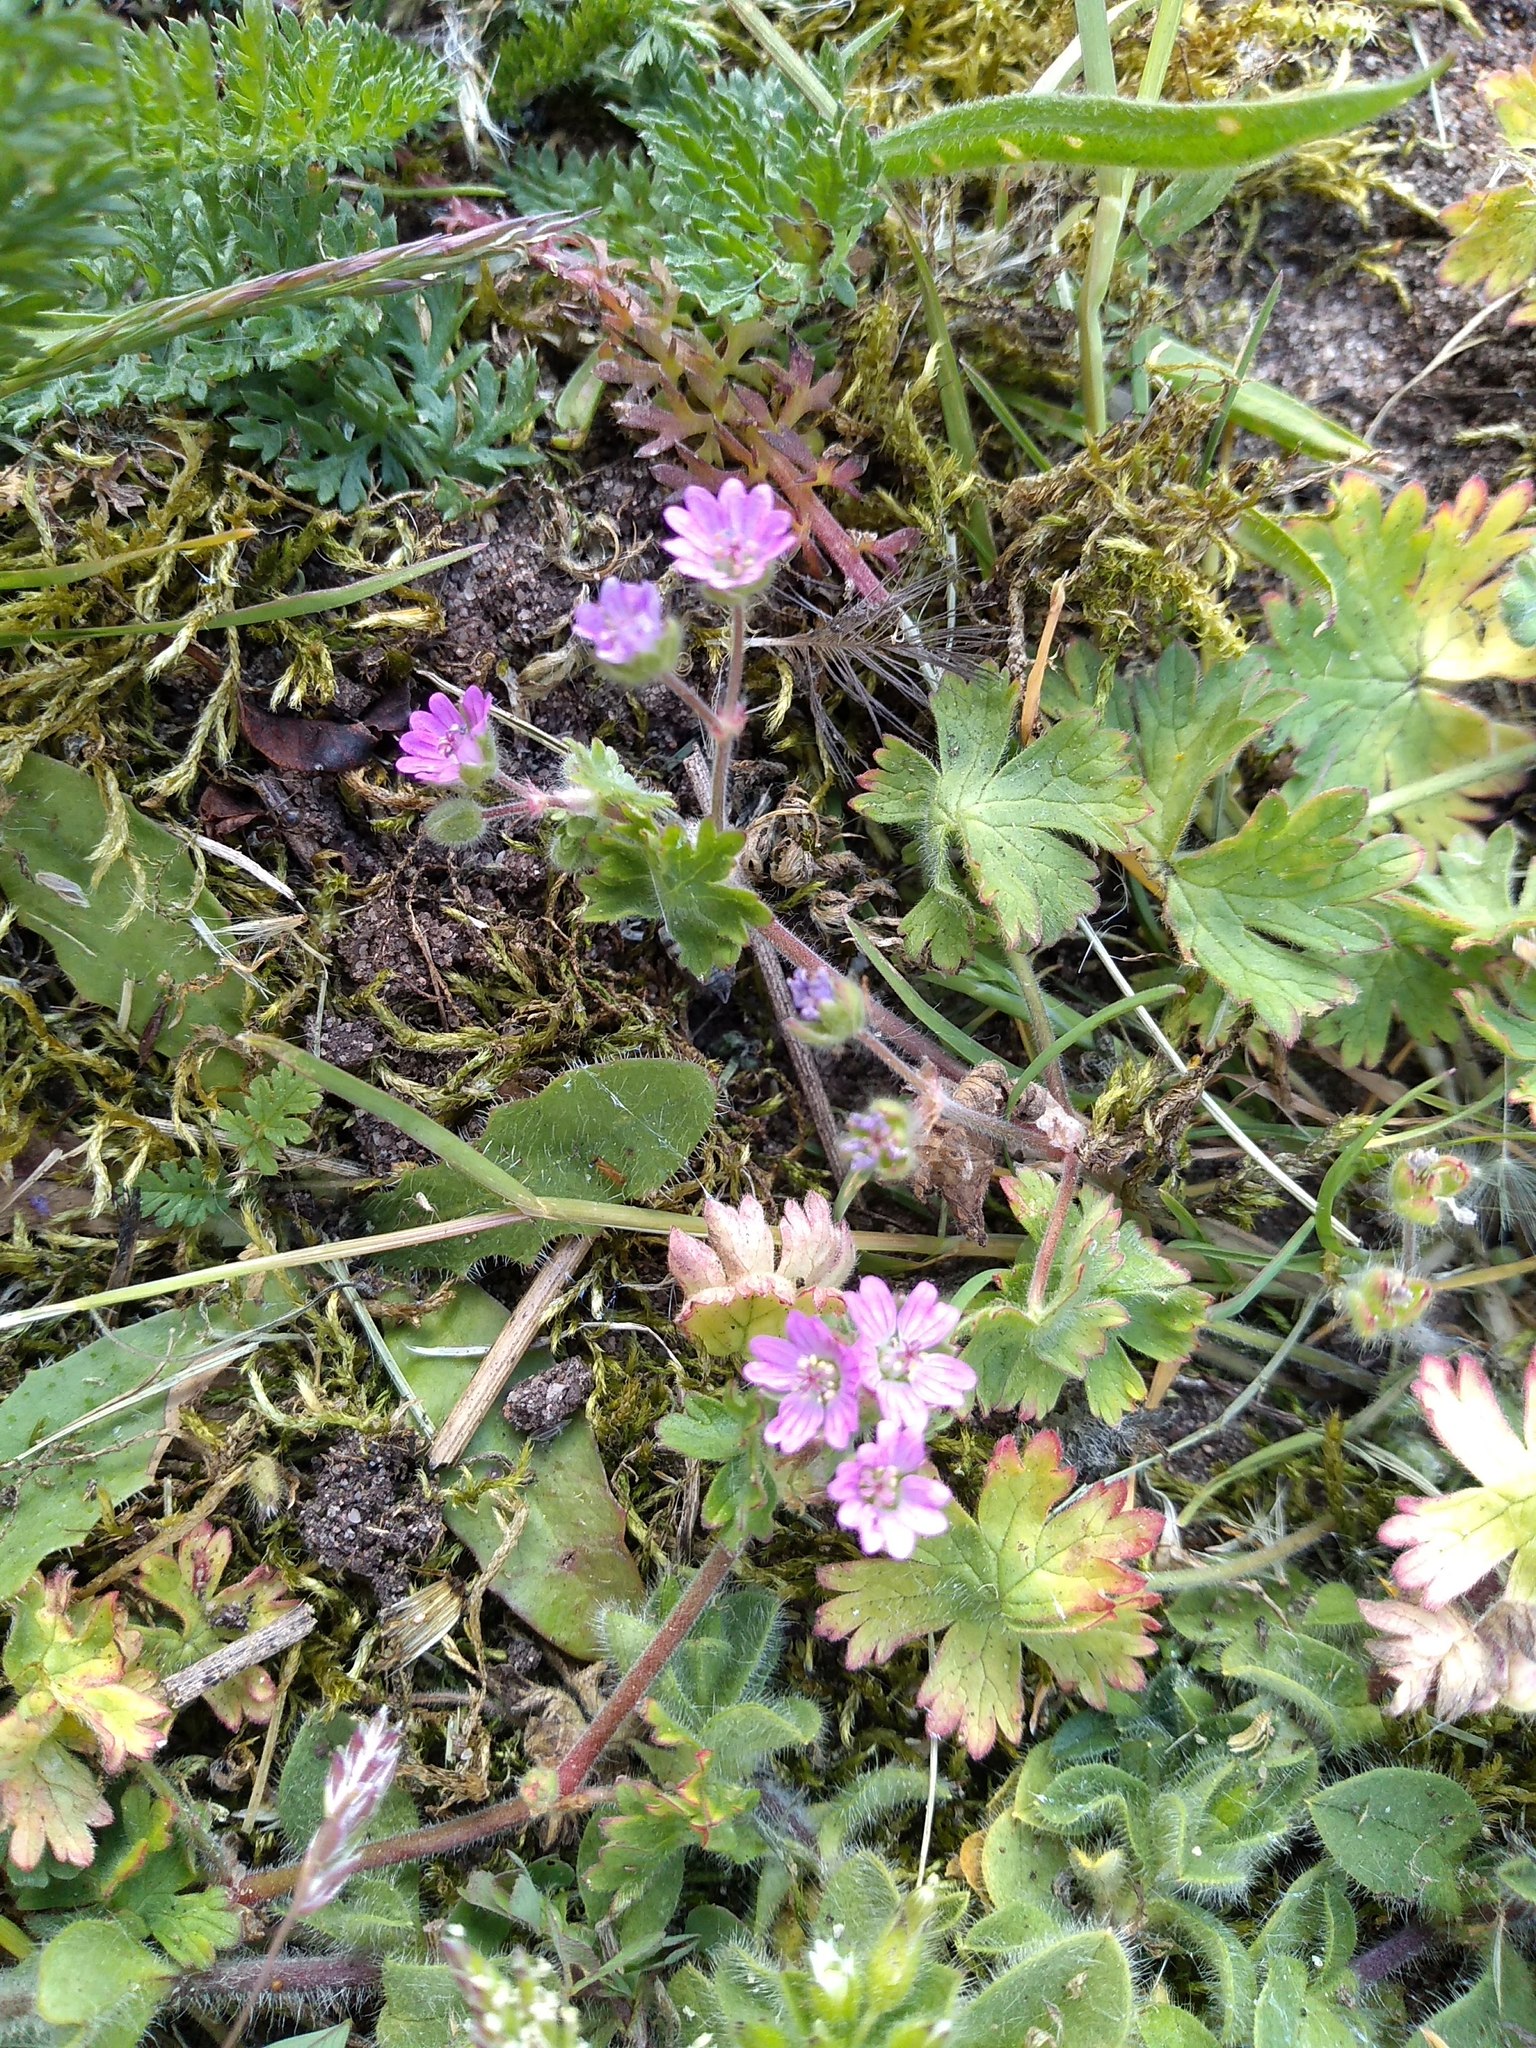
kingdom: Plantae
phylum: Tracheophyta
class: Magnoliopsida
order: Geraniales
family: Geraniaceae
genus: Geranium
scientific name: Geranium molle
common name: Dove's-foot crane's-bill
